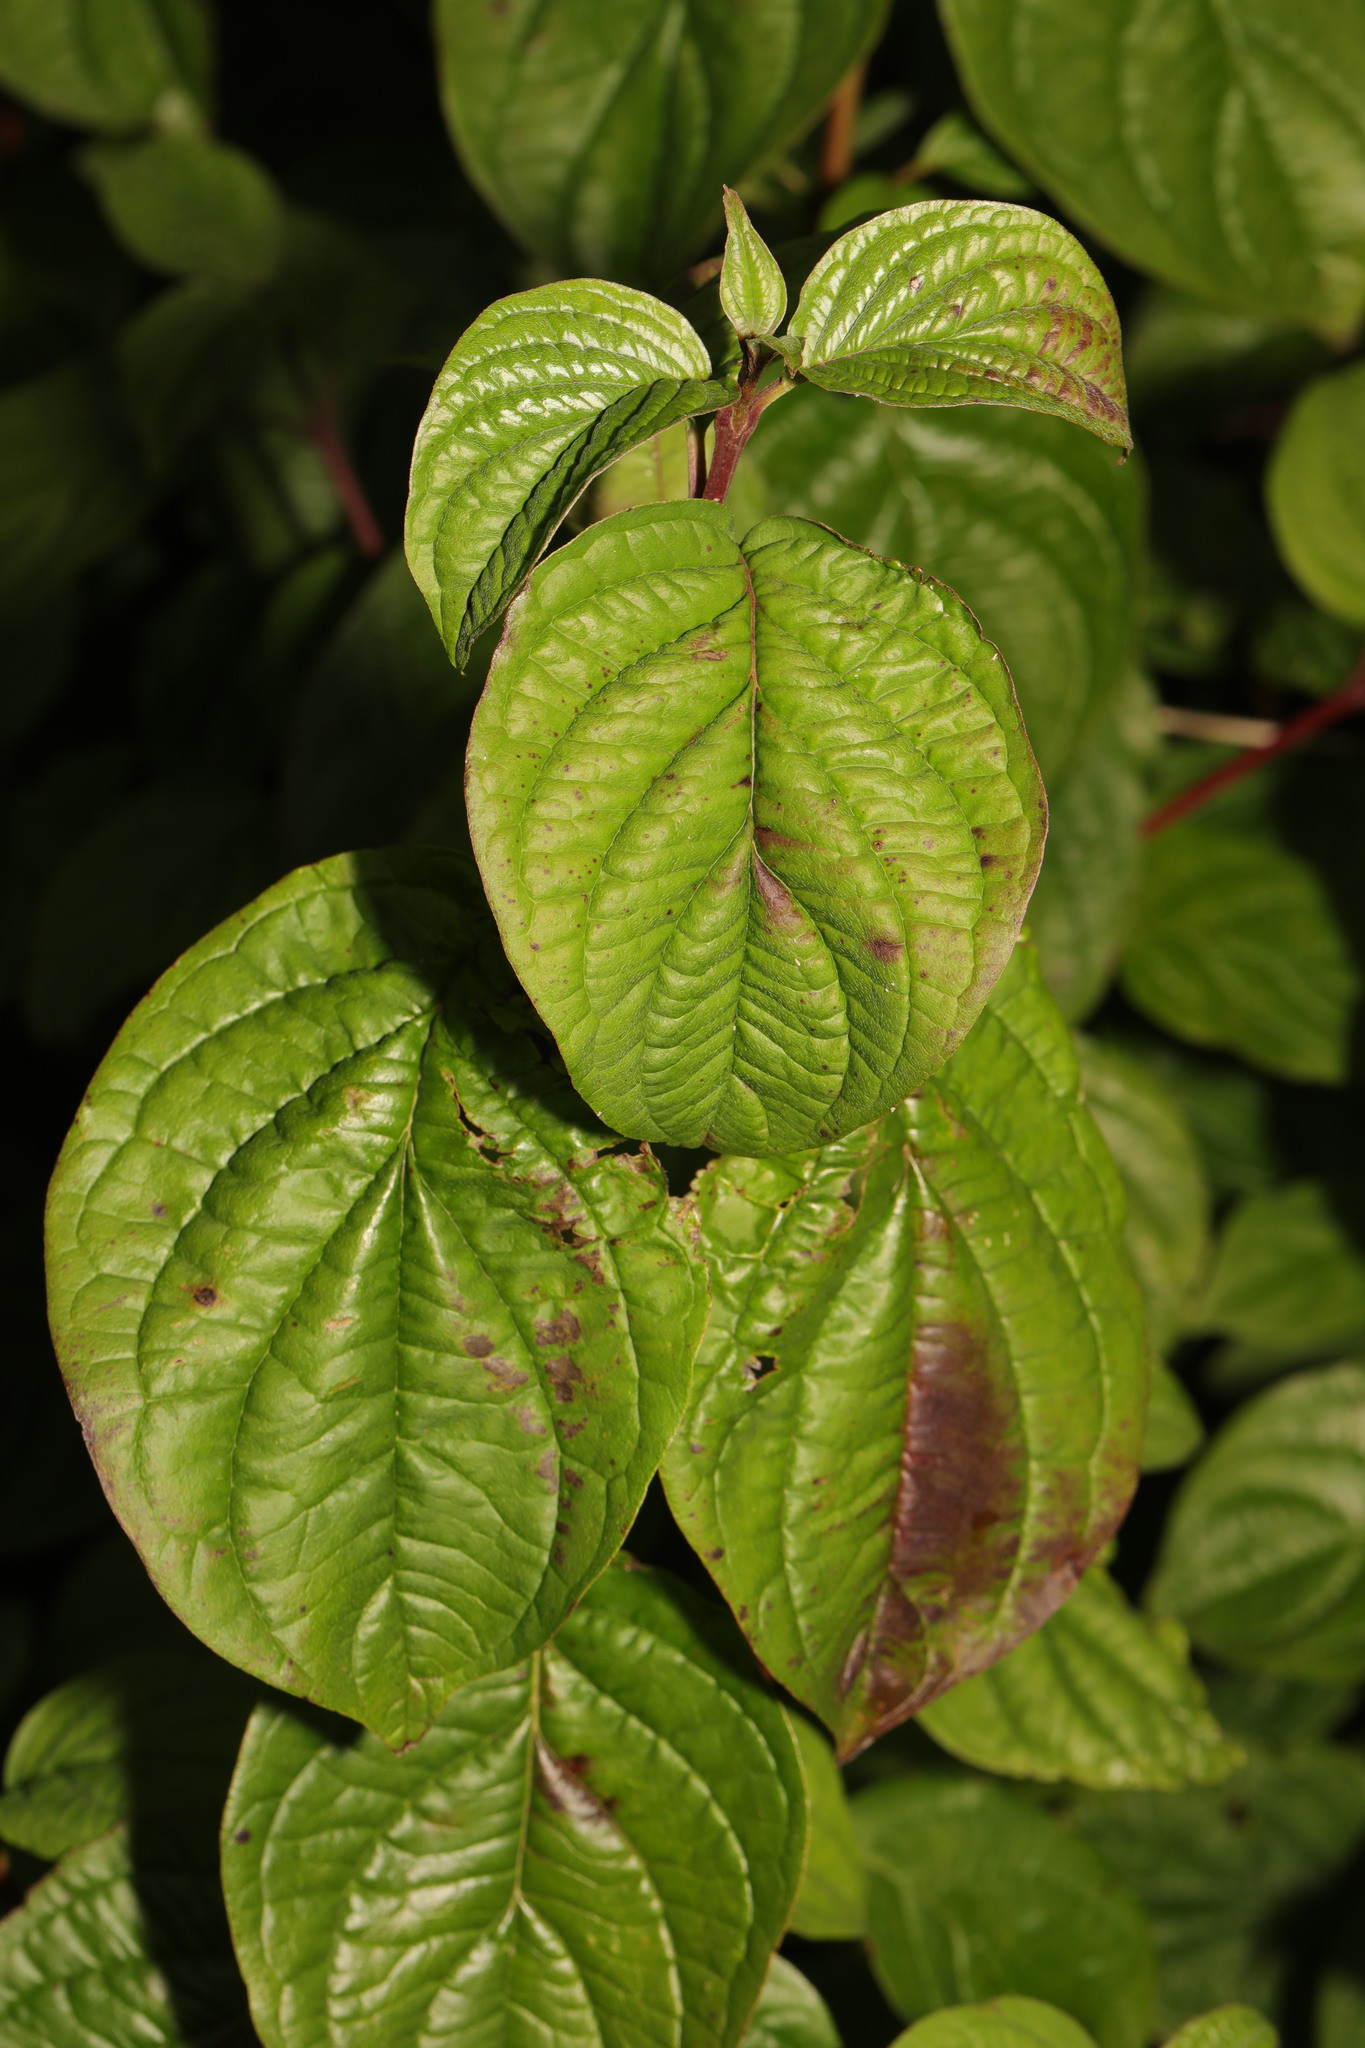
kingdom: Plantae
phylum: Tracheophyta
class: Magnoliopsida
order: Cornales
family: Cornaceae
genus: Cornus
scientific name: Cornus sanguinea
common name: Dogwood
